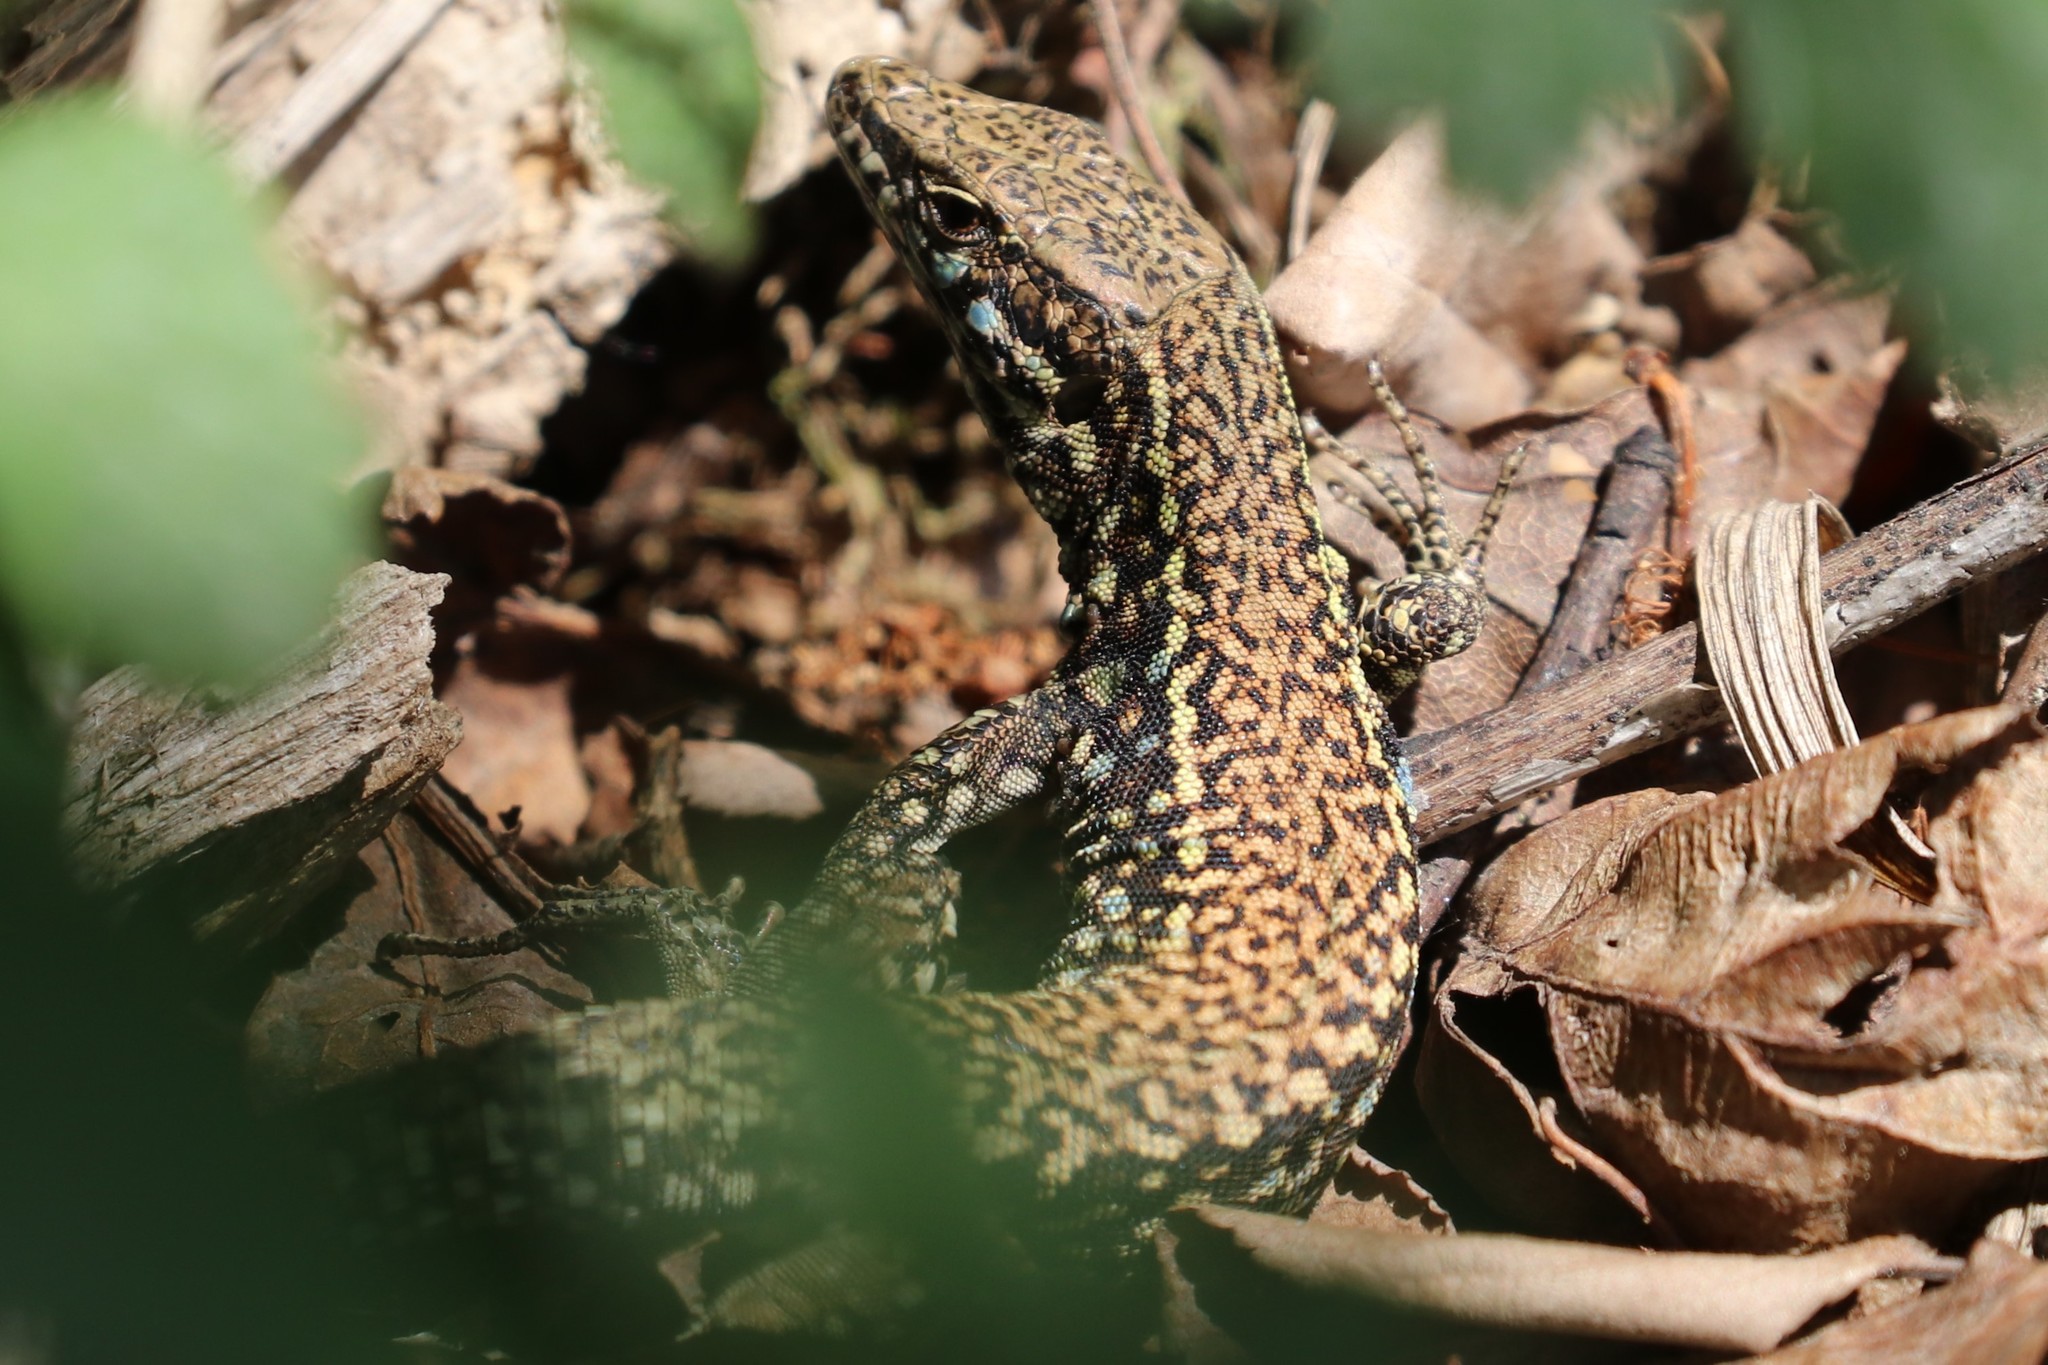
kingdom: Animalia
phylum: Chordata
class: Squamata
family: Lacertidae
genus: Podarcis
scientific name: Podarcis muralis
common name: Common wall lizard
